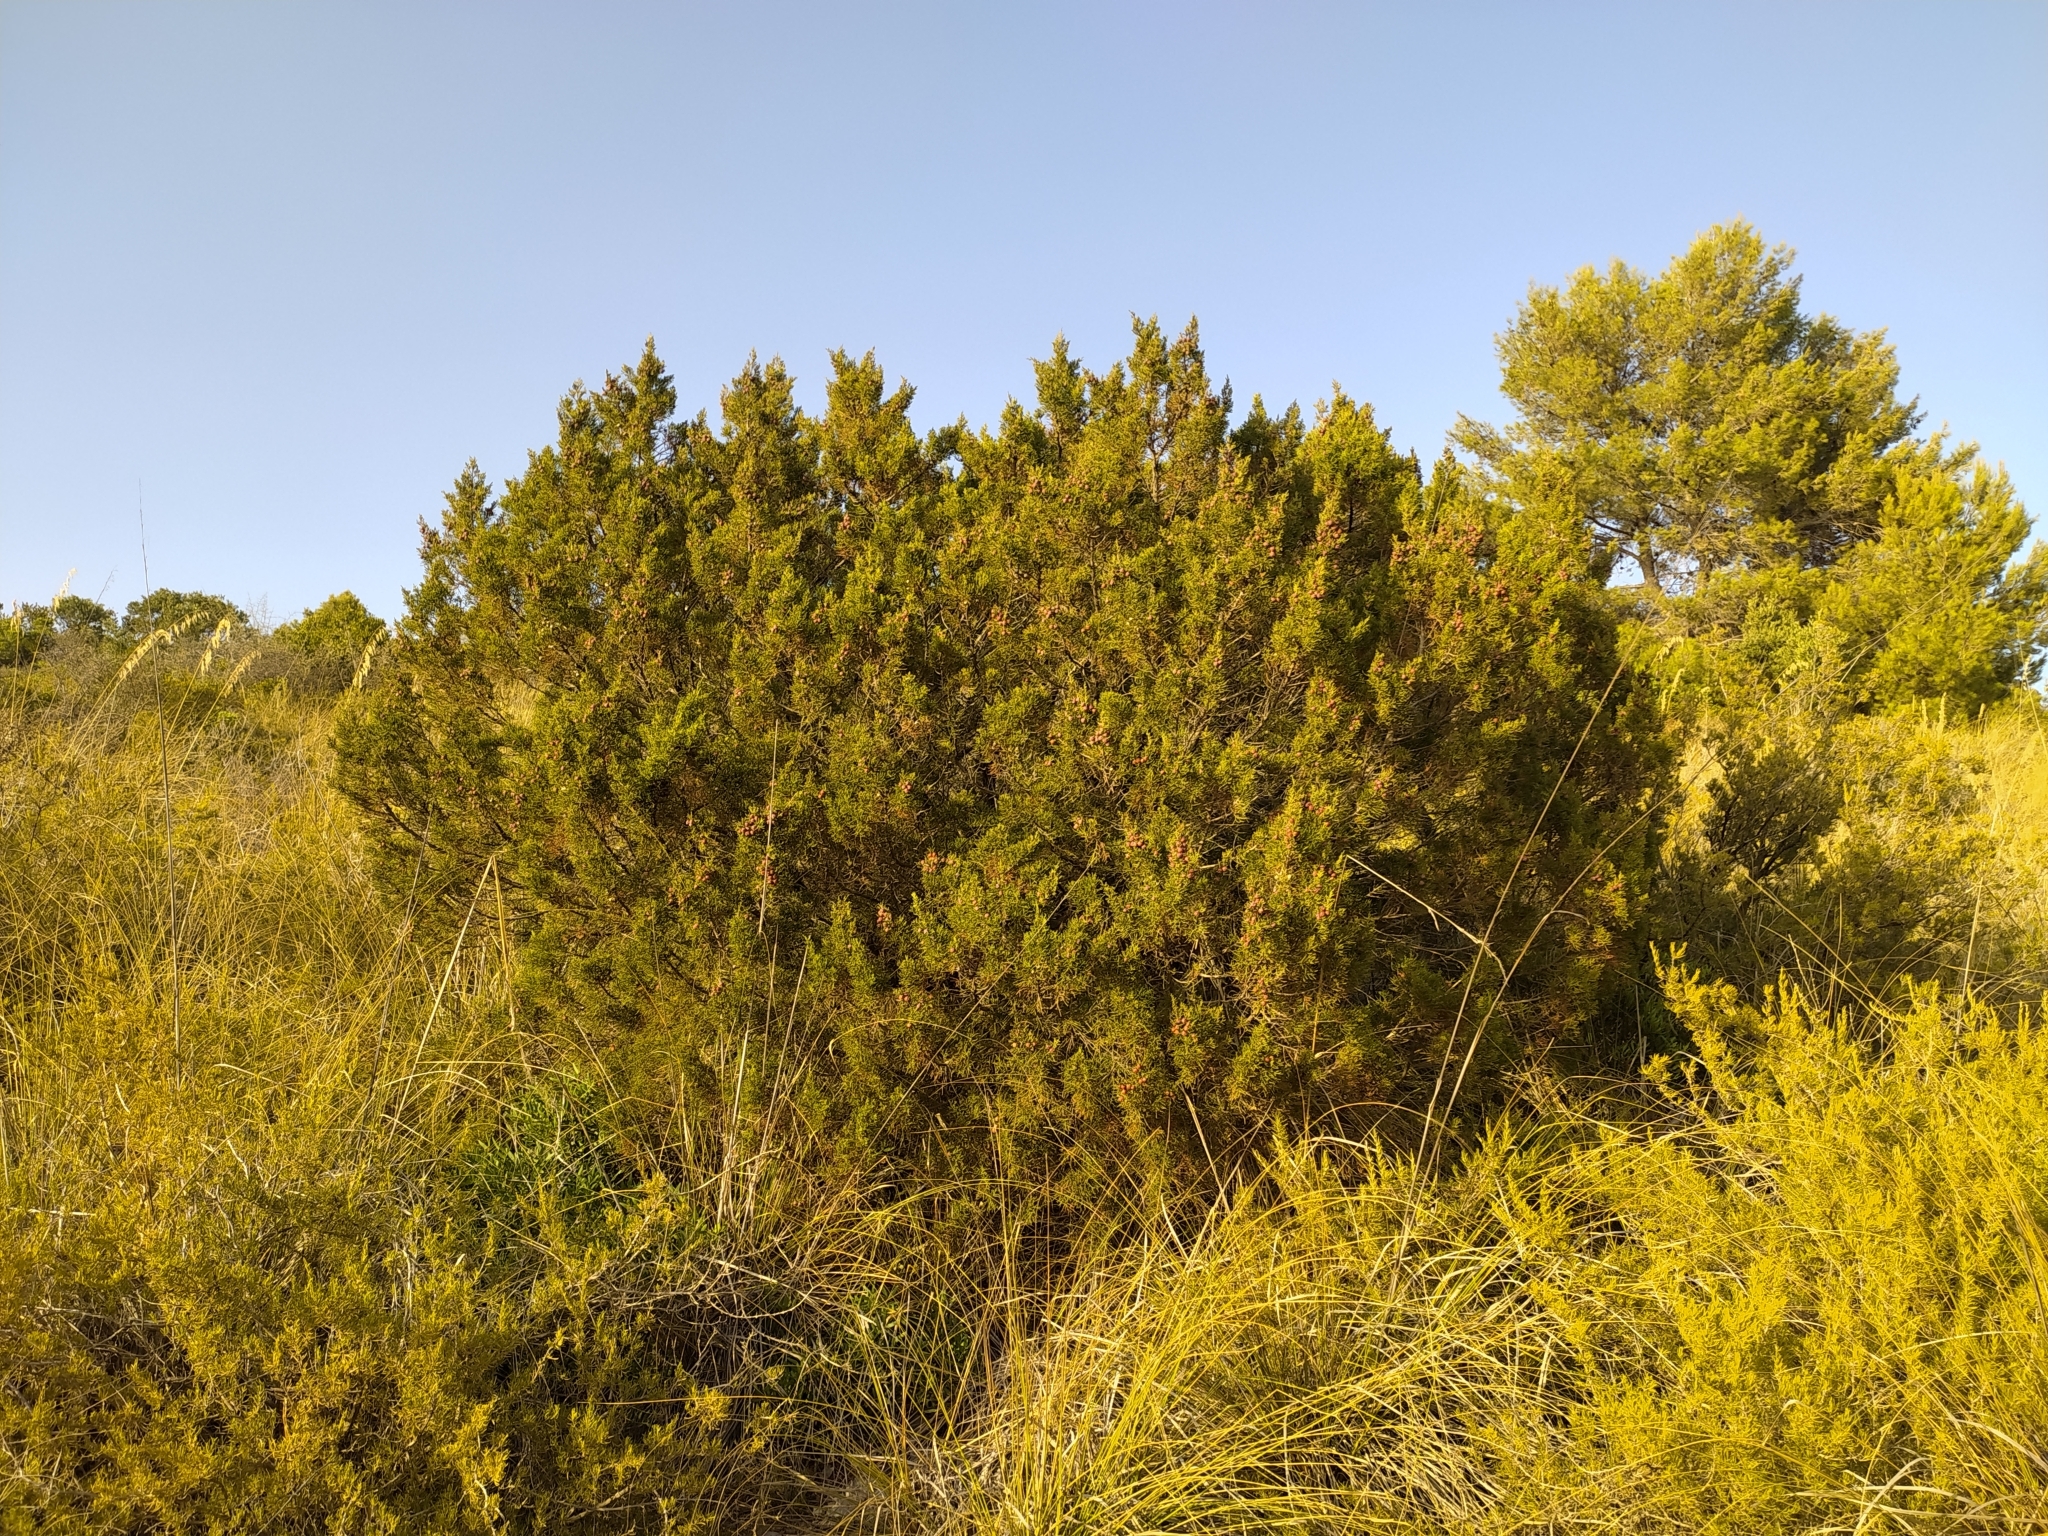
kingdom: Plantae
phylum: Tracheophyta
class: Pinopsida
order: Pinales
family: Cupressaceae
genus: Juniperus
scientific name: Juniperus phoenicea
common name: Phoenician juniper
